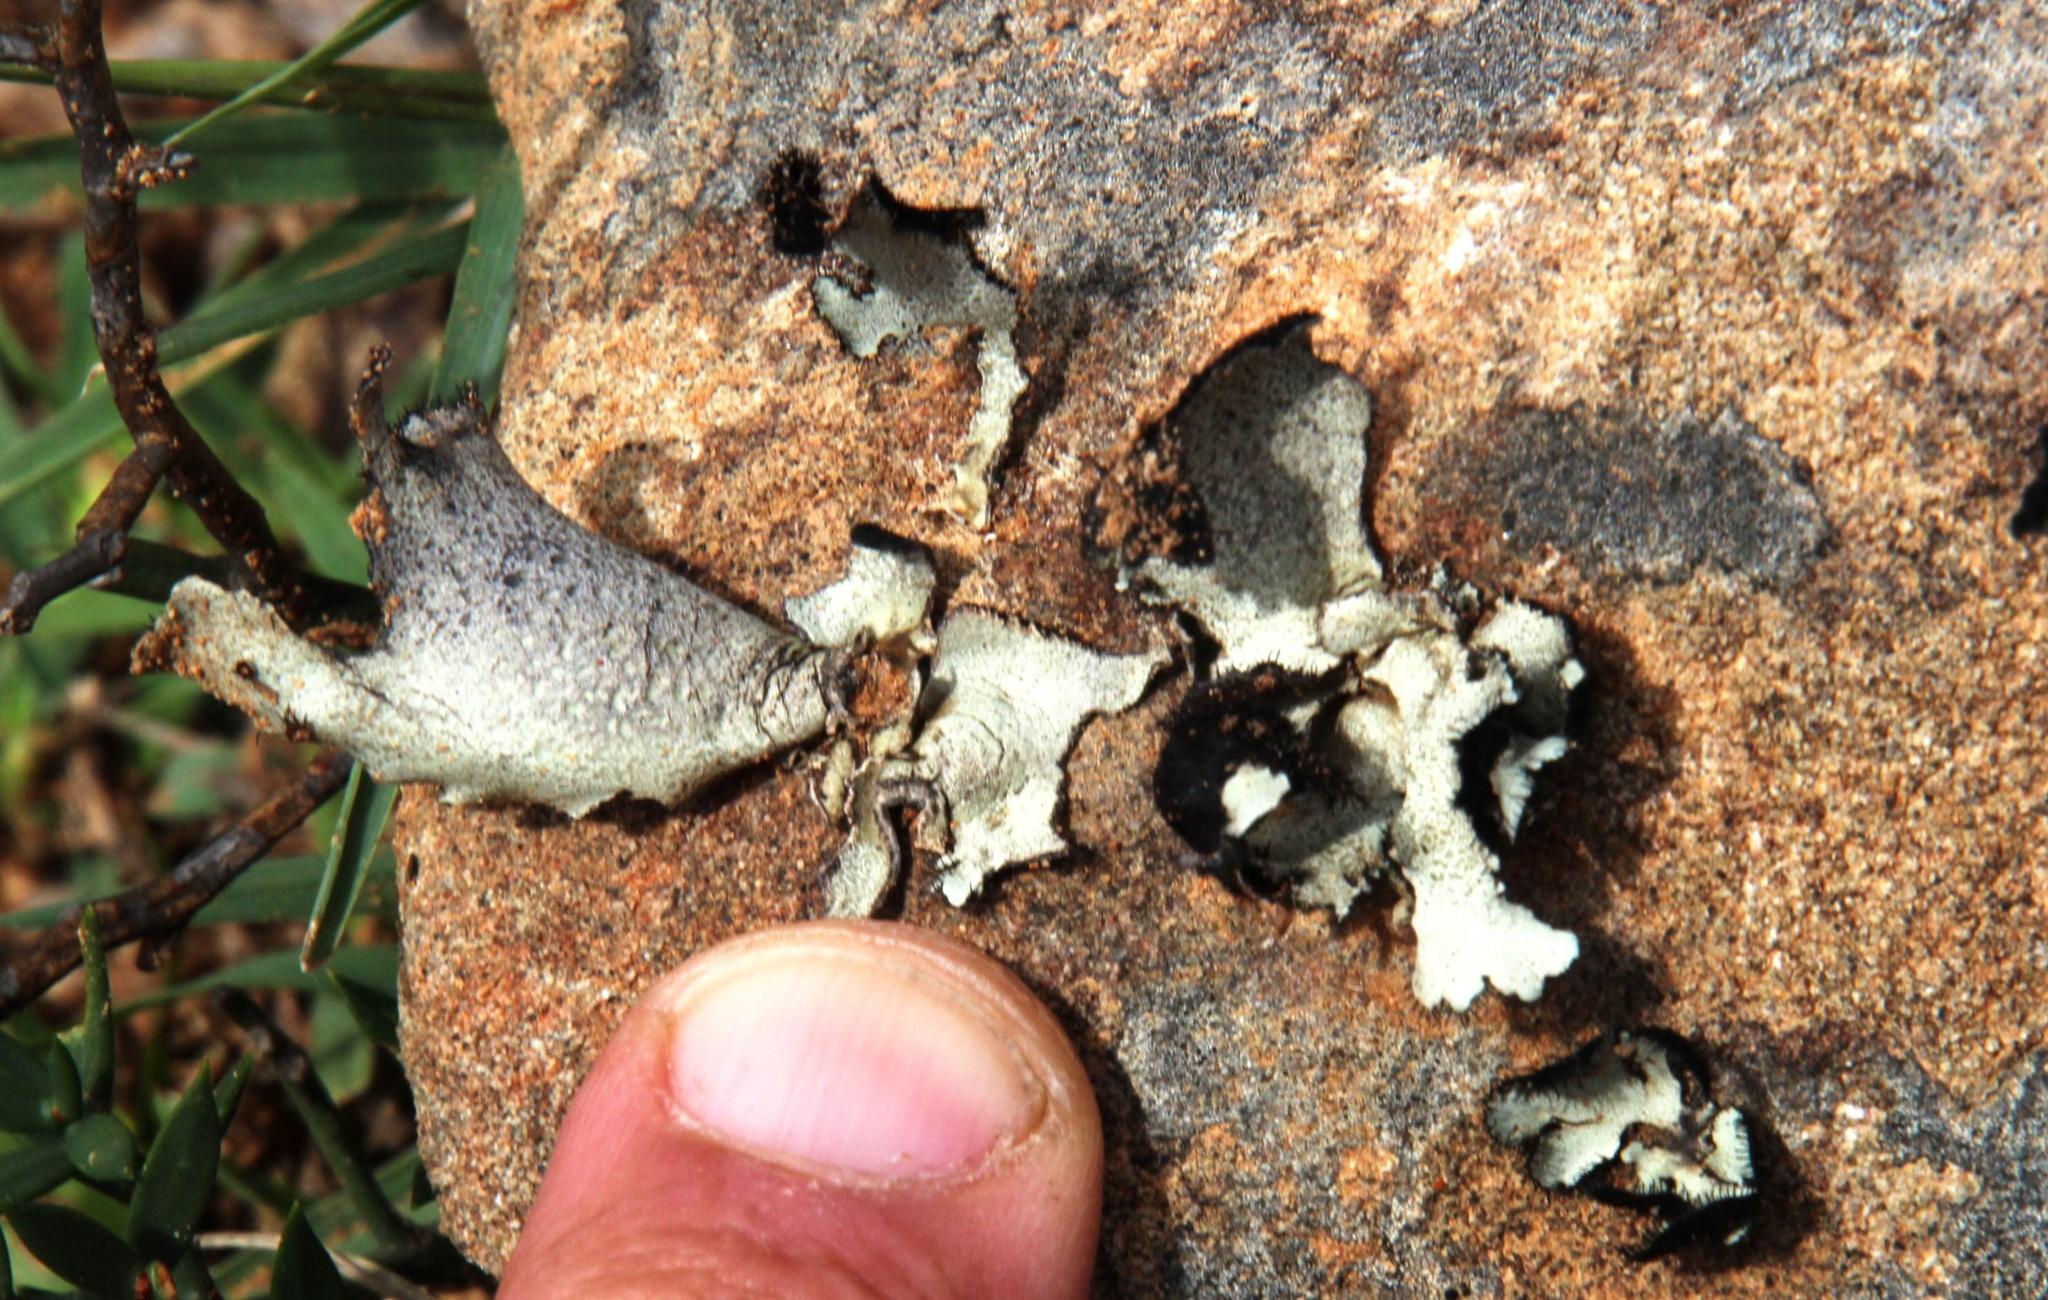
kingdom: Fungi
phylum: Ascomycota
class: Lecanoromycetes
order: Lecanorales
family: Parmeliaceae
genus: Xanthoparmelia
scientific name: Xanthoparmelia hottentotta
